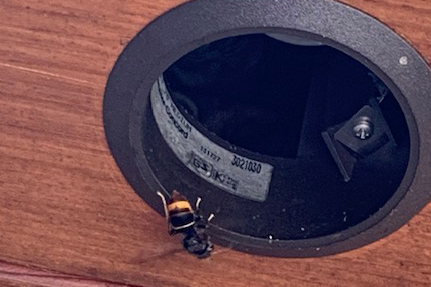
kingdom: Animalia
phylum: Arthropoda
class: Insecta
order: Hymenoptera
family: Vespidae
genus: Vespa
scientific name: Vespa velutina
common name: Asian hornet
